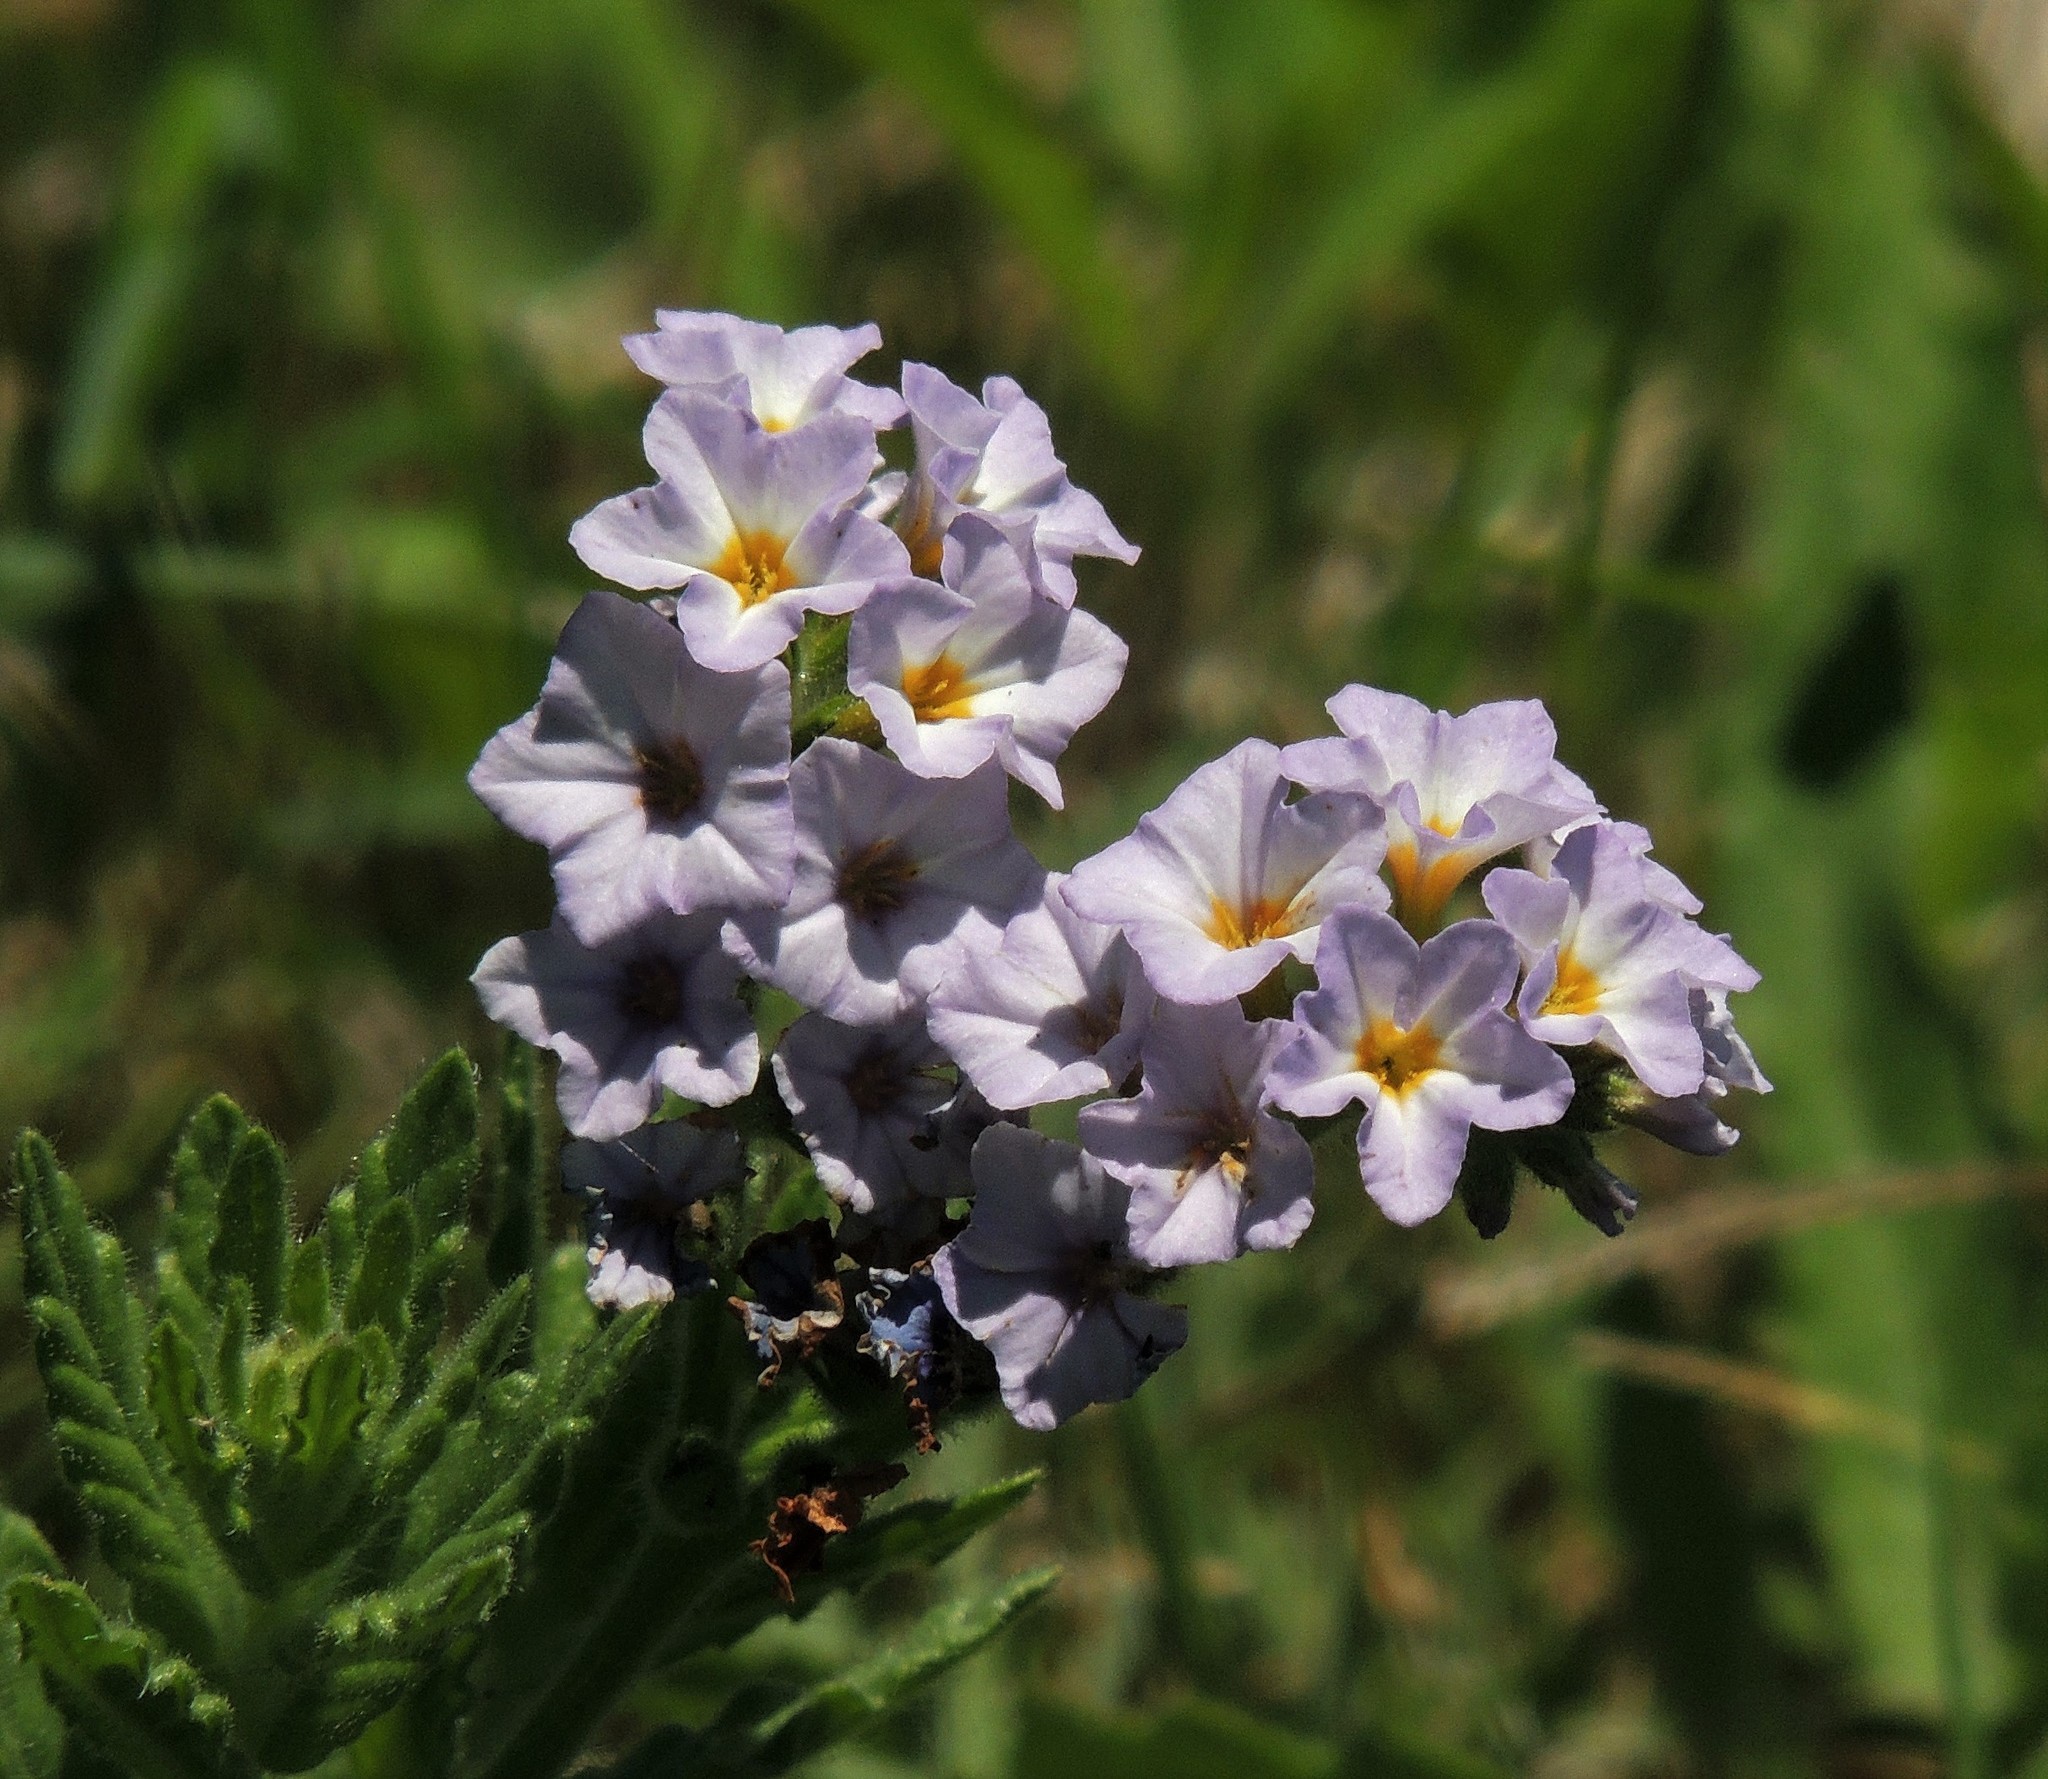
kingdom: Plantae
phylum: Tracheophyta
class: Magnoliopsida
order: Boraginales
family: Heliotropiaceae
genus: Heliotropium
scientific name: Heliotropium amplexicaule
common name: Clasping heliotrope
